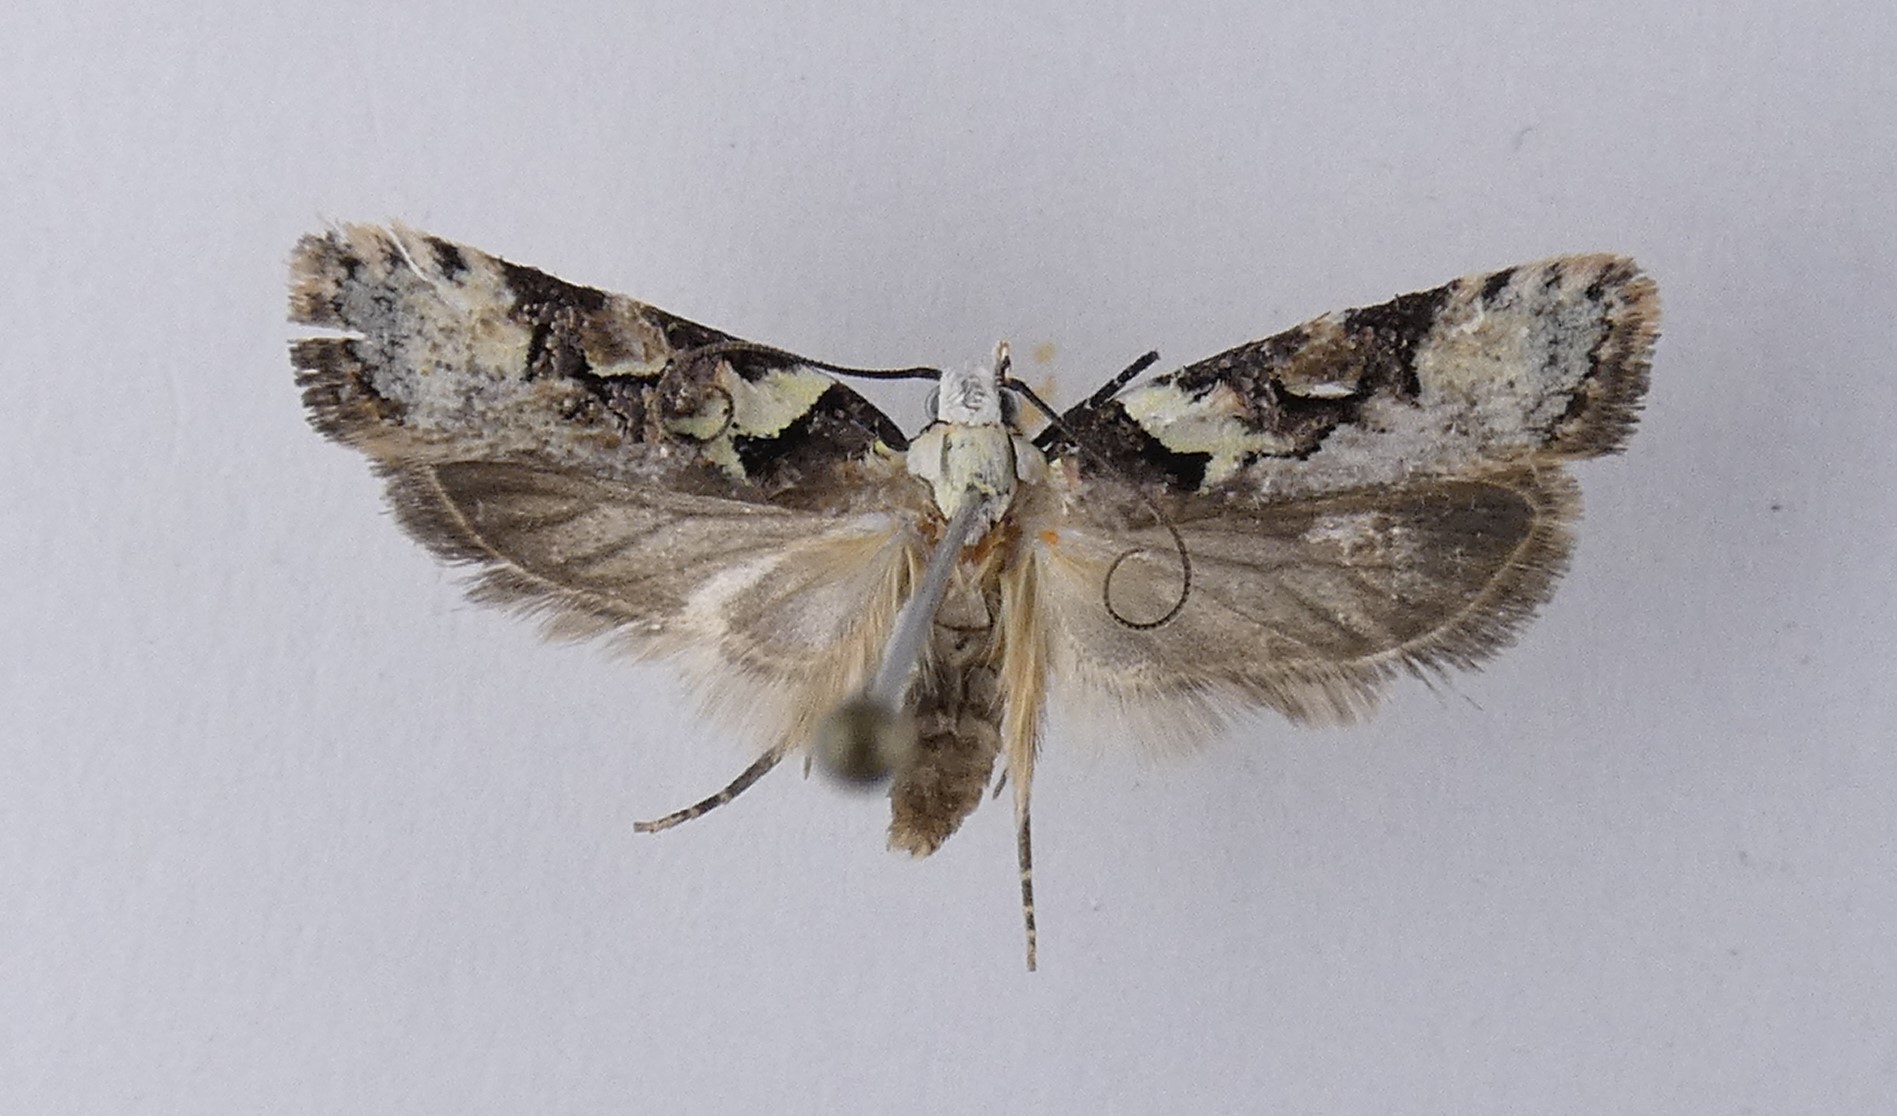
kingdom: Animalia
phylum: Arthropoda
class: Insecta
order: Lepidoptera
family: Oecophoridae
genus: Izatha
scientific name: Izatha epiphanes
